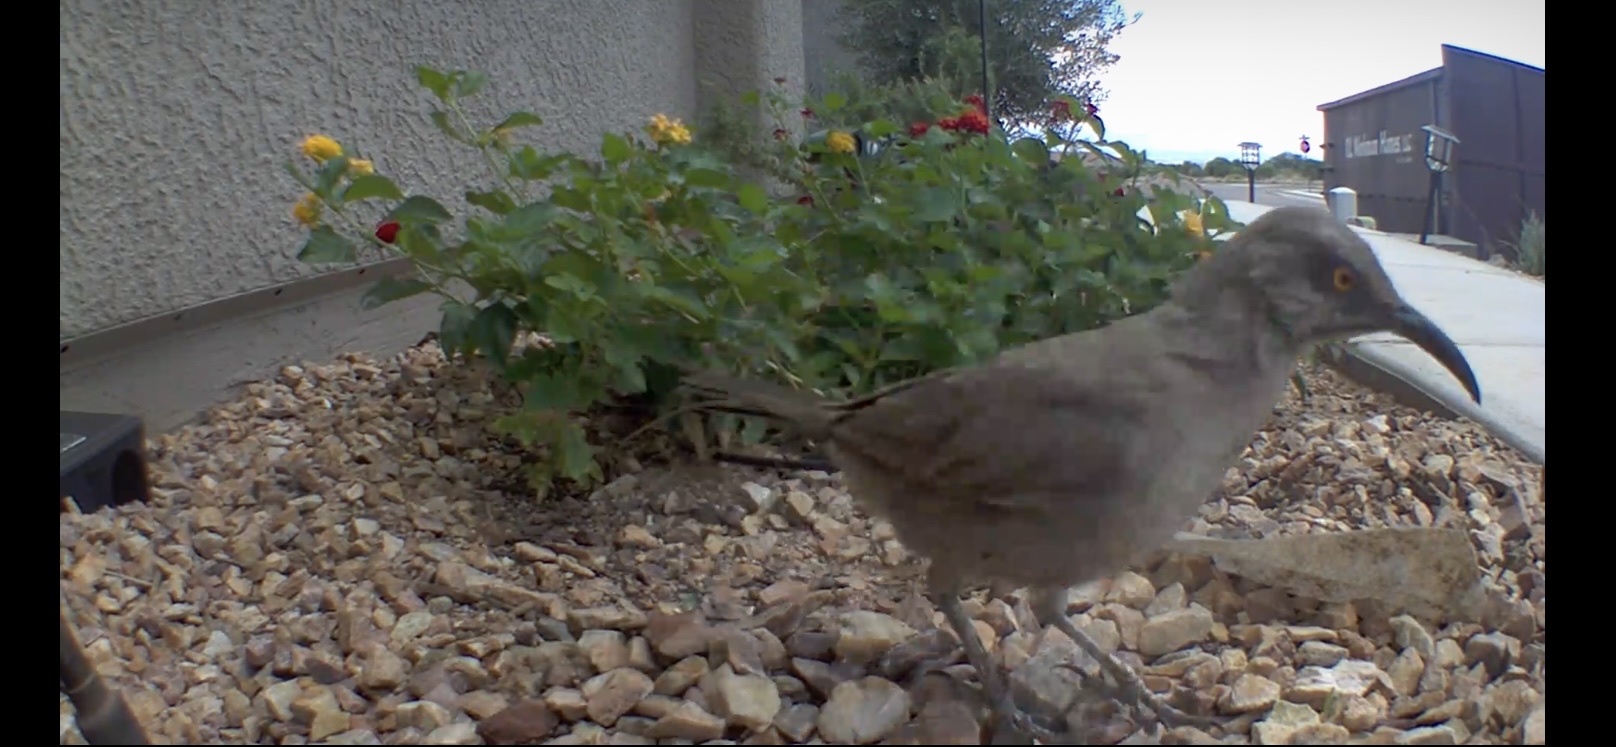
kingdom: Animalia
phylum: Chordata
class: Aves
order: Passeriformes
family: Mimidae
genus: Toxostoma
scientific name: Toxostoma curvirostre
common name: Curve-billed thrasher
